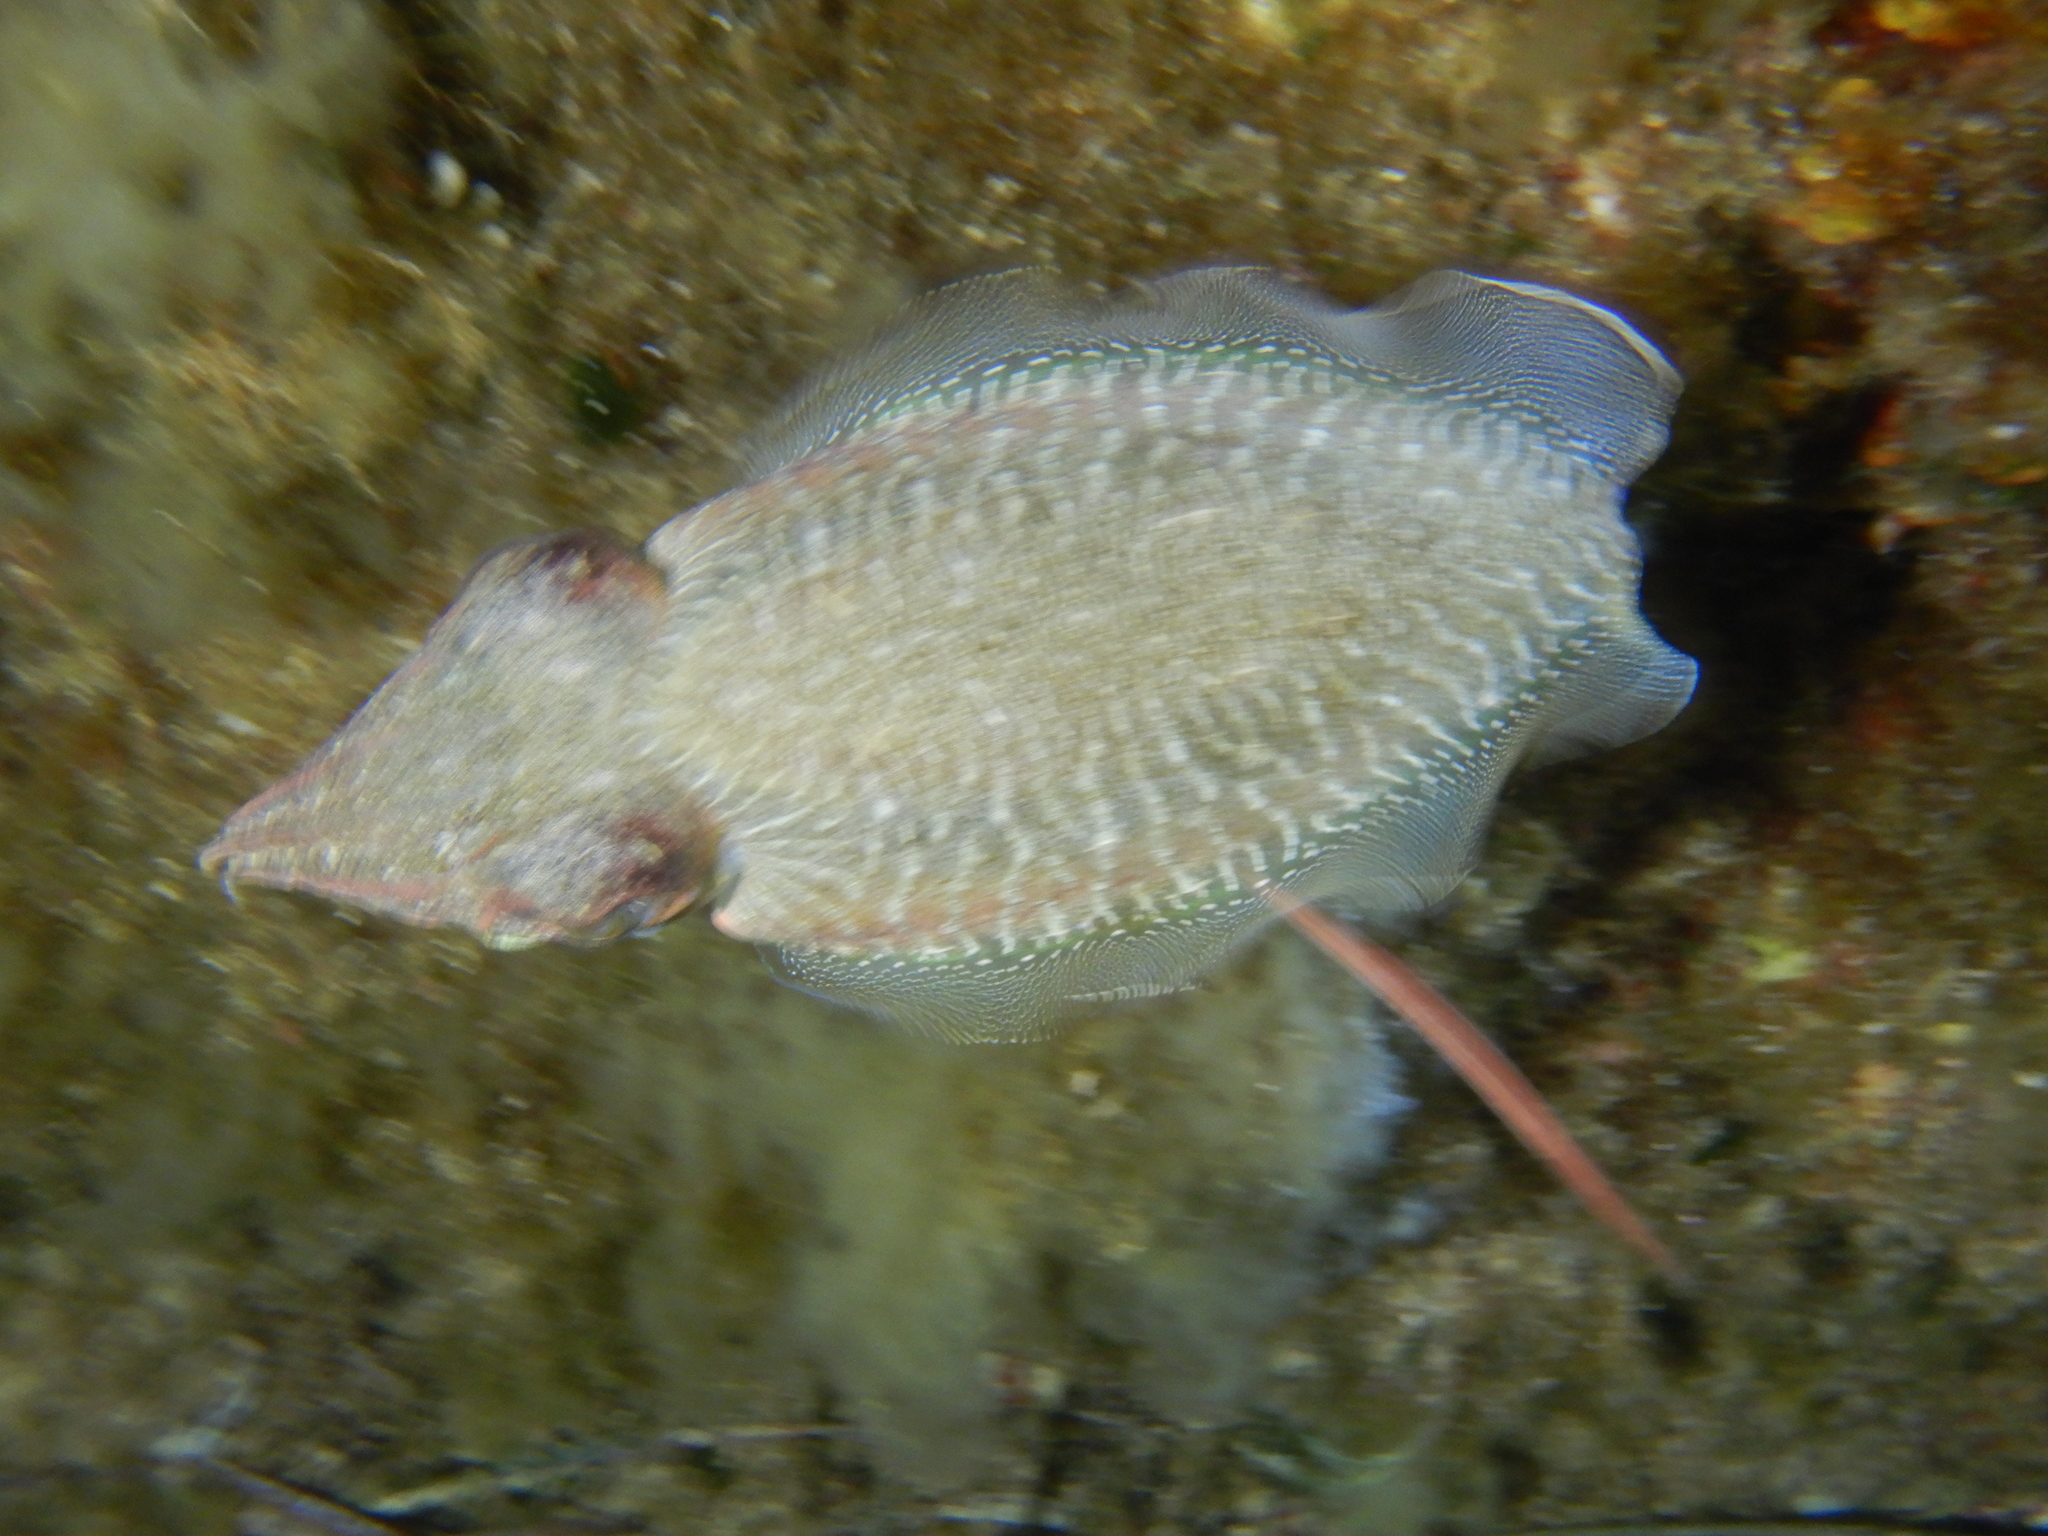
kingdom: Animalia
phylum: Mollusca
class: Cephalopoda
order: Sepiida
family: Sepiidae
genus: Sepia
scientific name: Sepia officinalis
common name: Common cuttlefish
